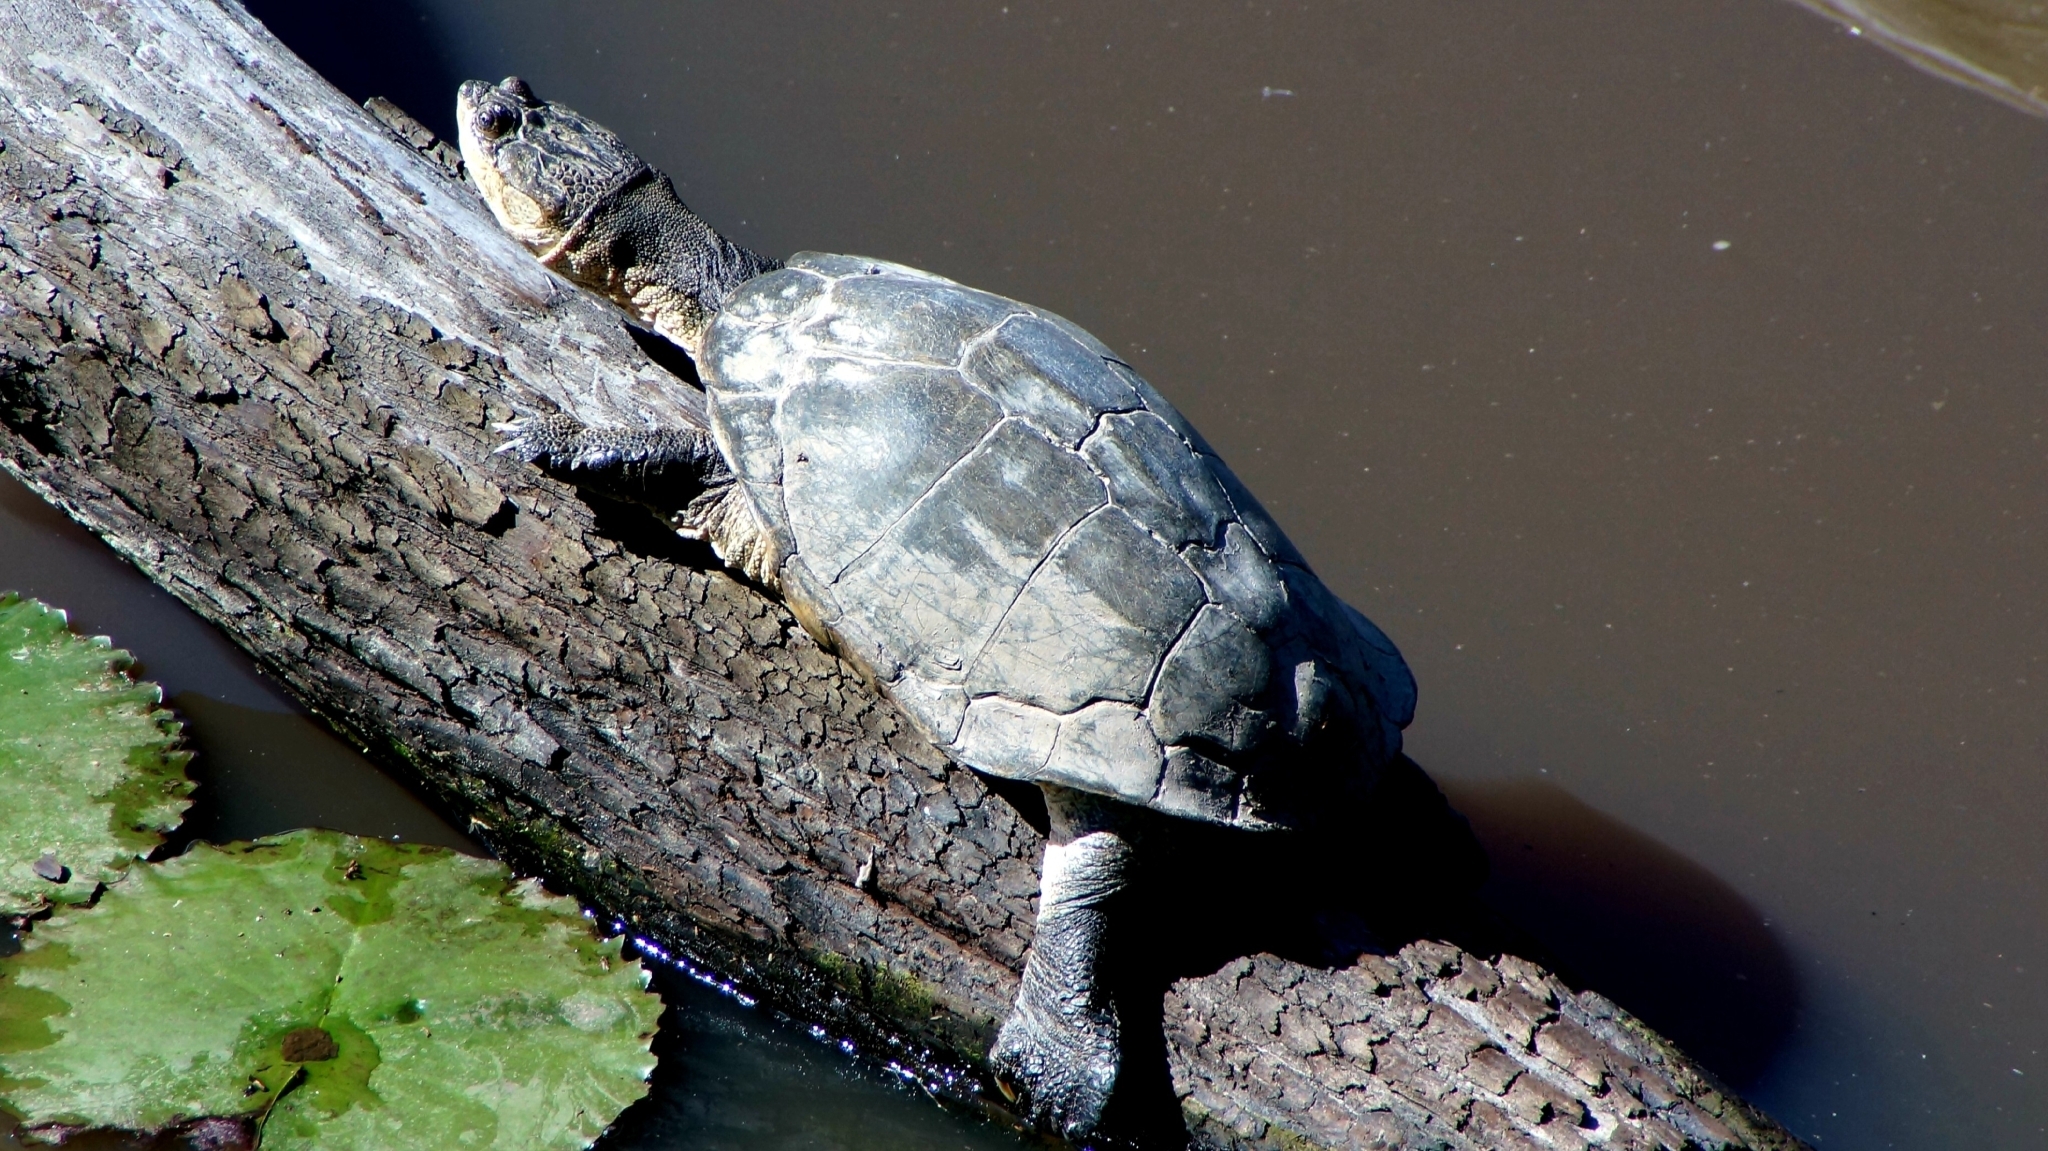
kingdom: Animalia
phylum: Chordata
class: Testudines
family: Pelomedusidae
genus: Pelomedusa
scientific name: Pelomedusa galeata
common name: South african helmeted terrapin
